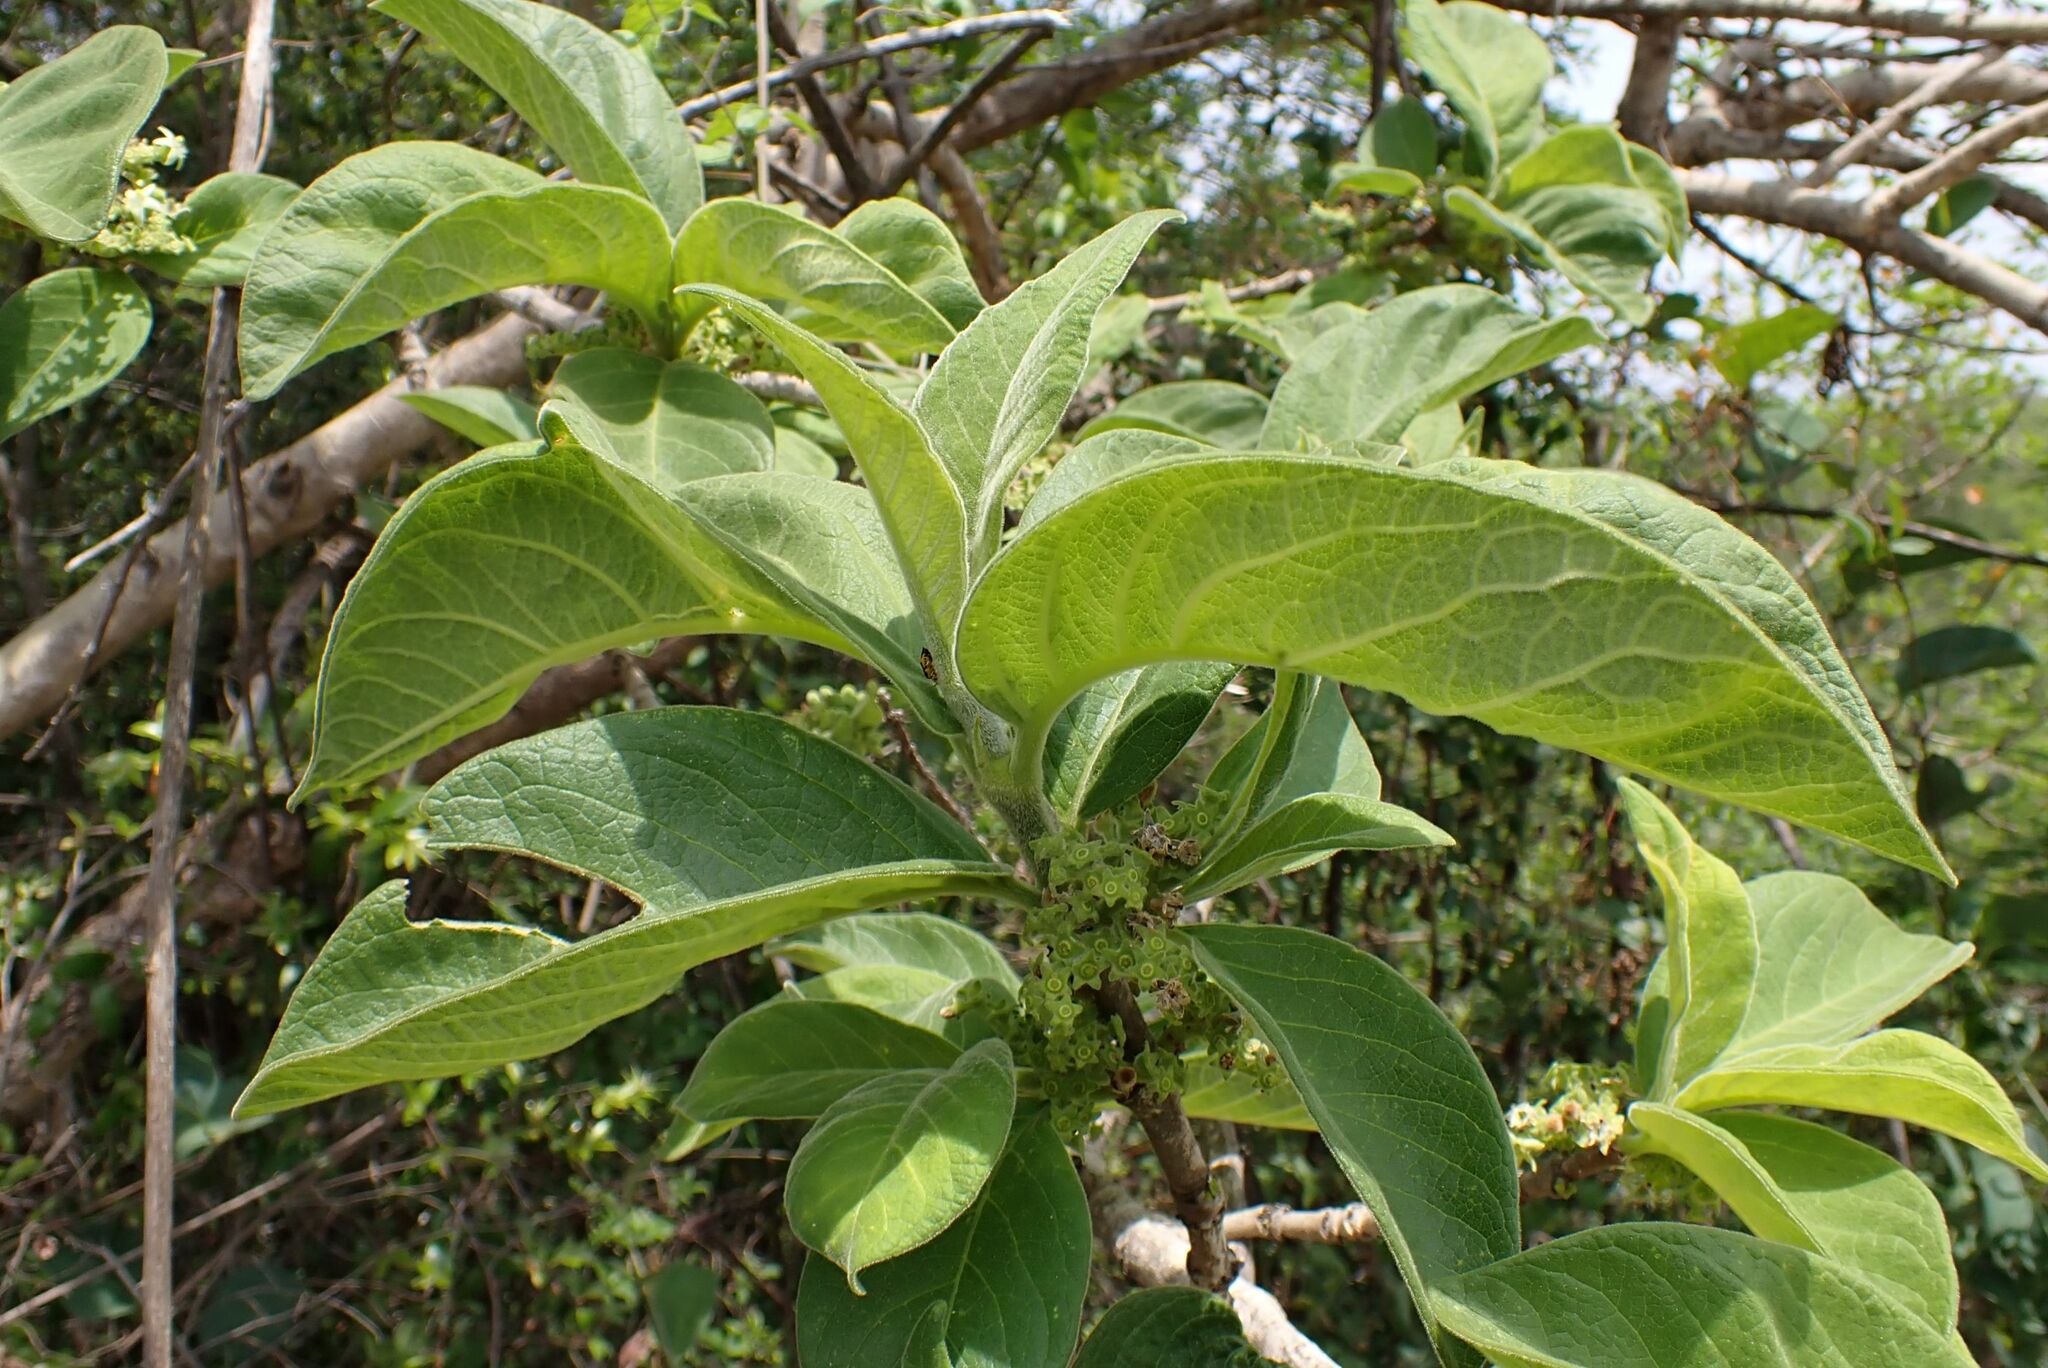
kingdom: Plantae
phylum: Tracheophyta
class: Magnoliopsida
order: Gentianales
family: Rubiaceae
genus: Vangueria
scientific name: Vangueria infausta
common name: Medlar
